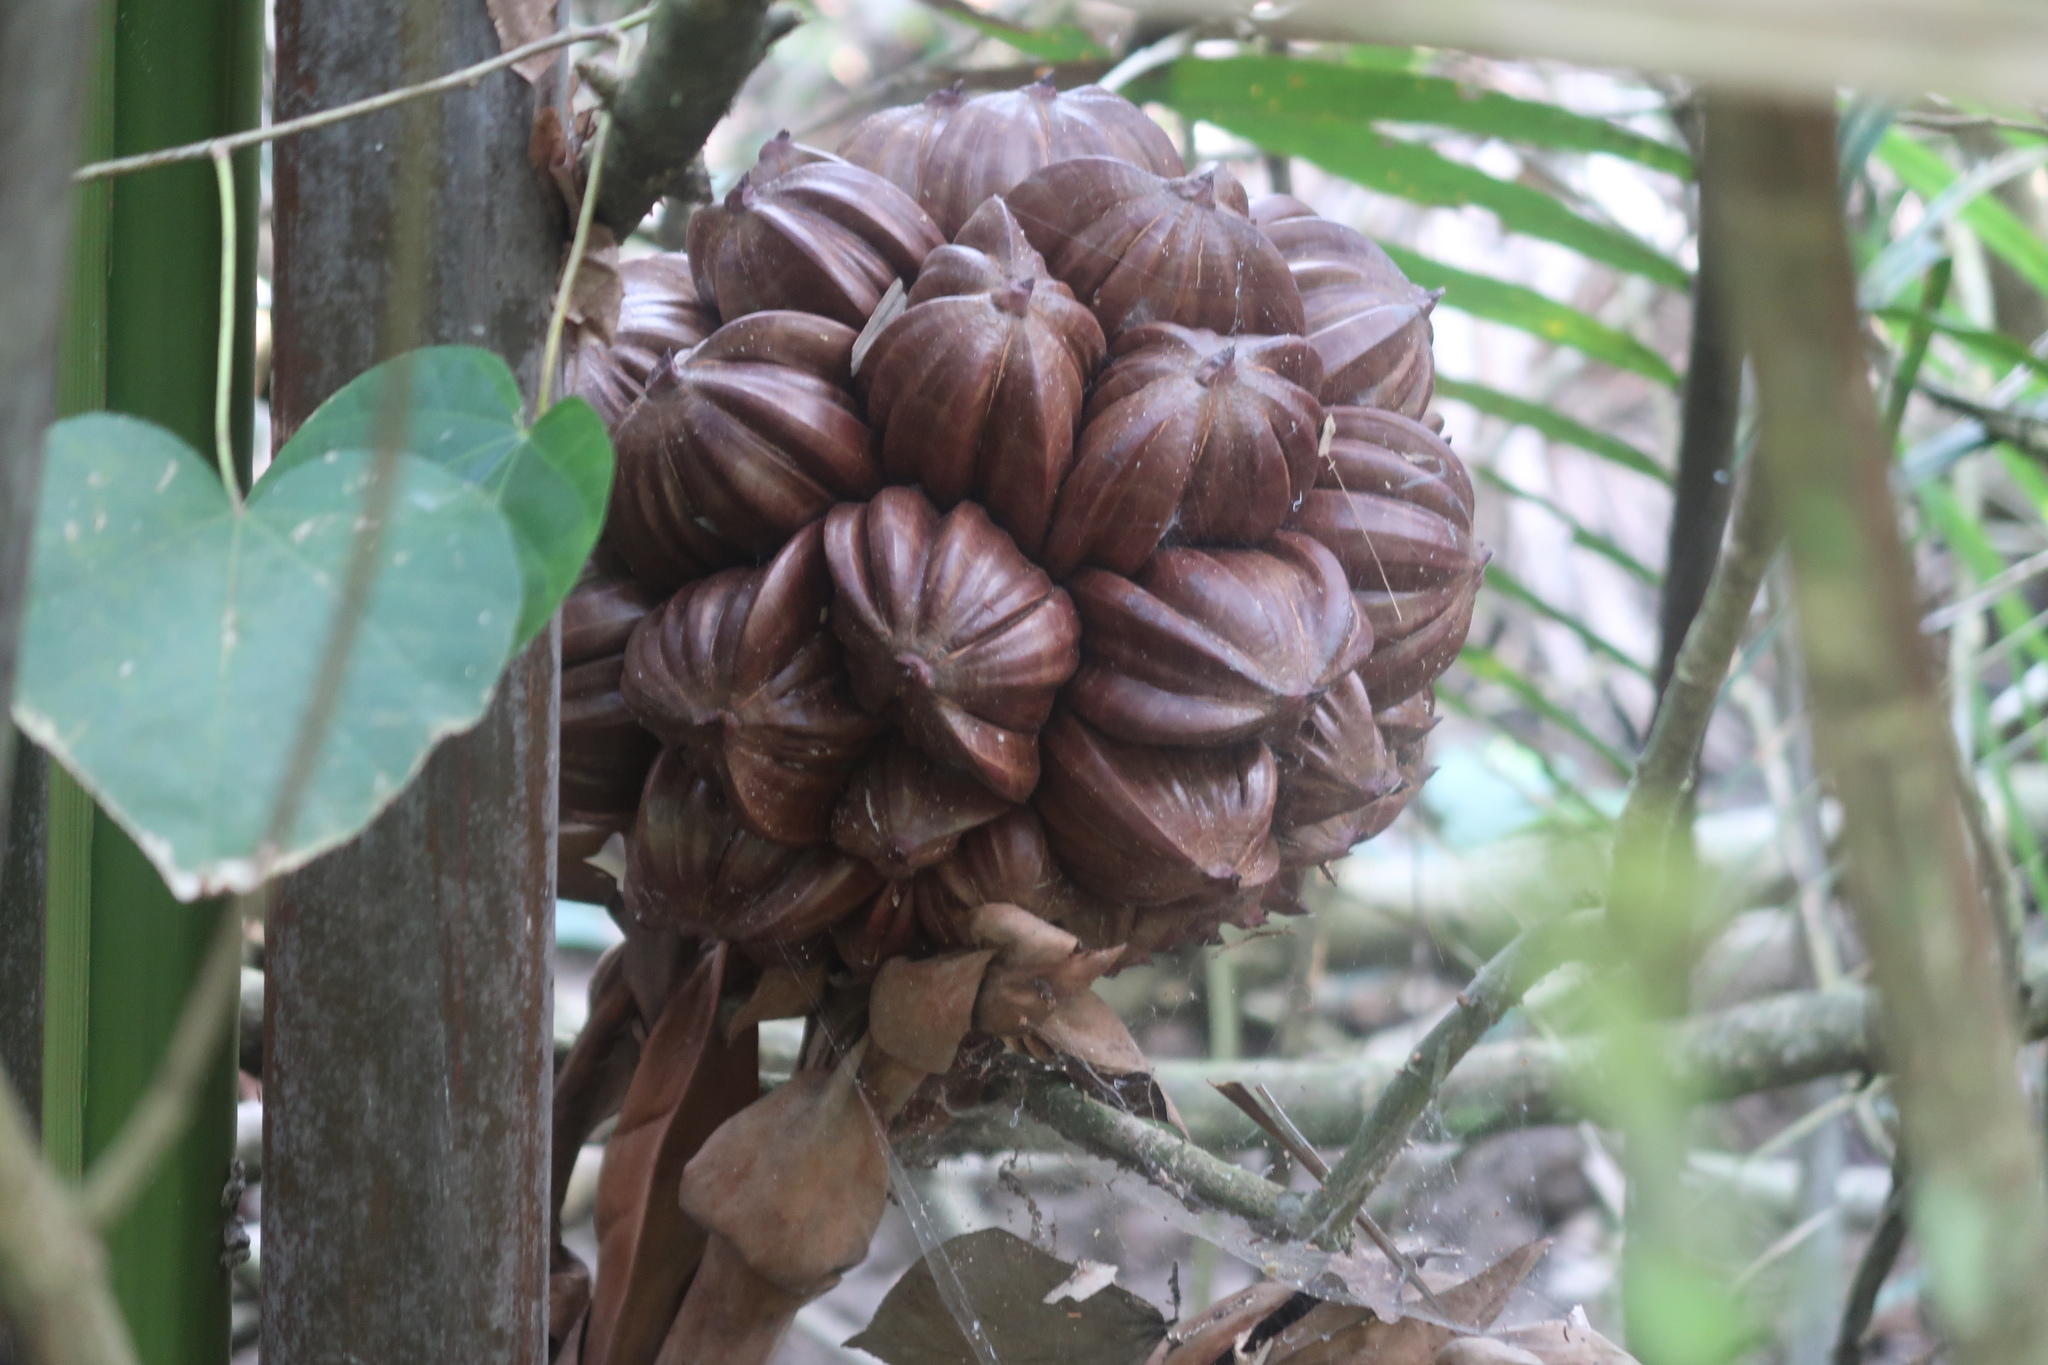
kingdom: Plantae
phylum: Tracheophyta
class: Liliopsida
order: Arecales
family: Arecaceae
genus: Nypa
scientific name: Nypa fruticans
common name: Mangrove palm
